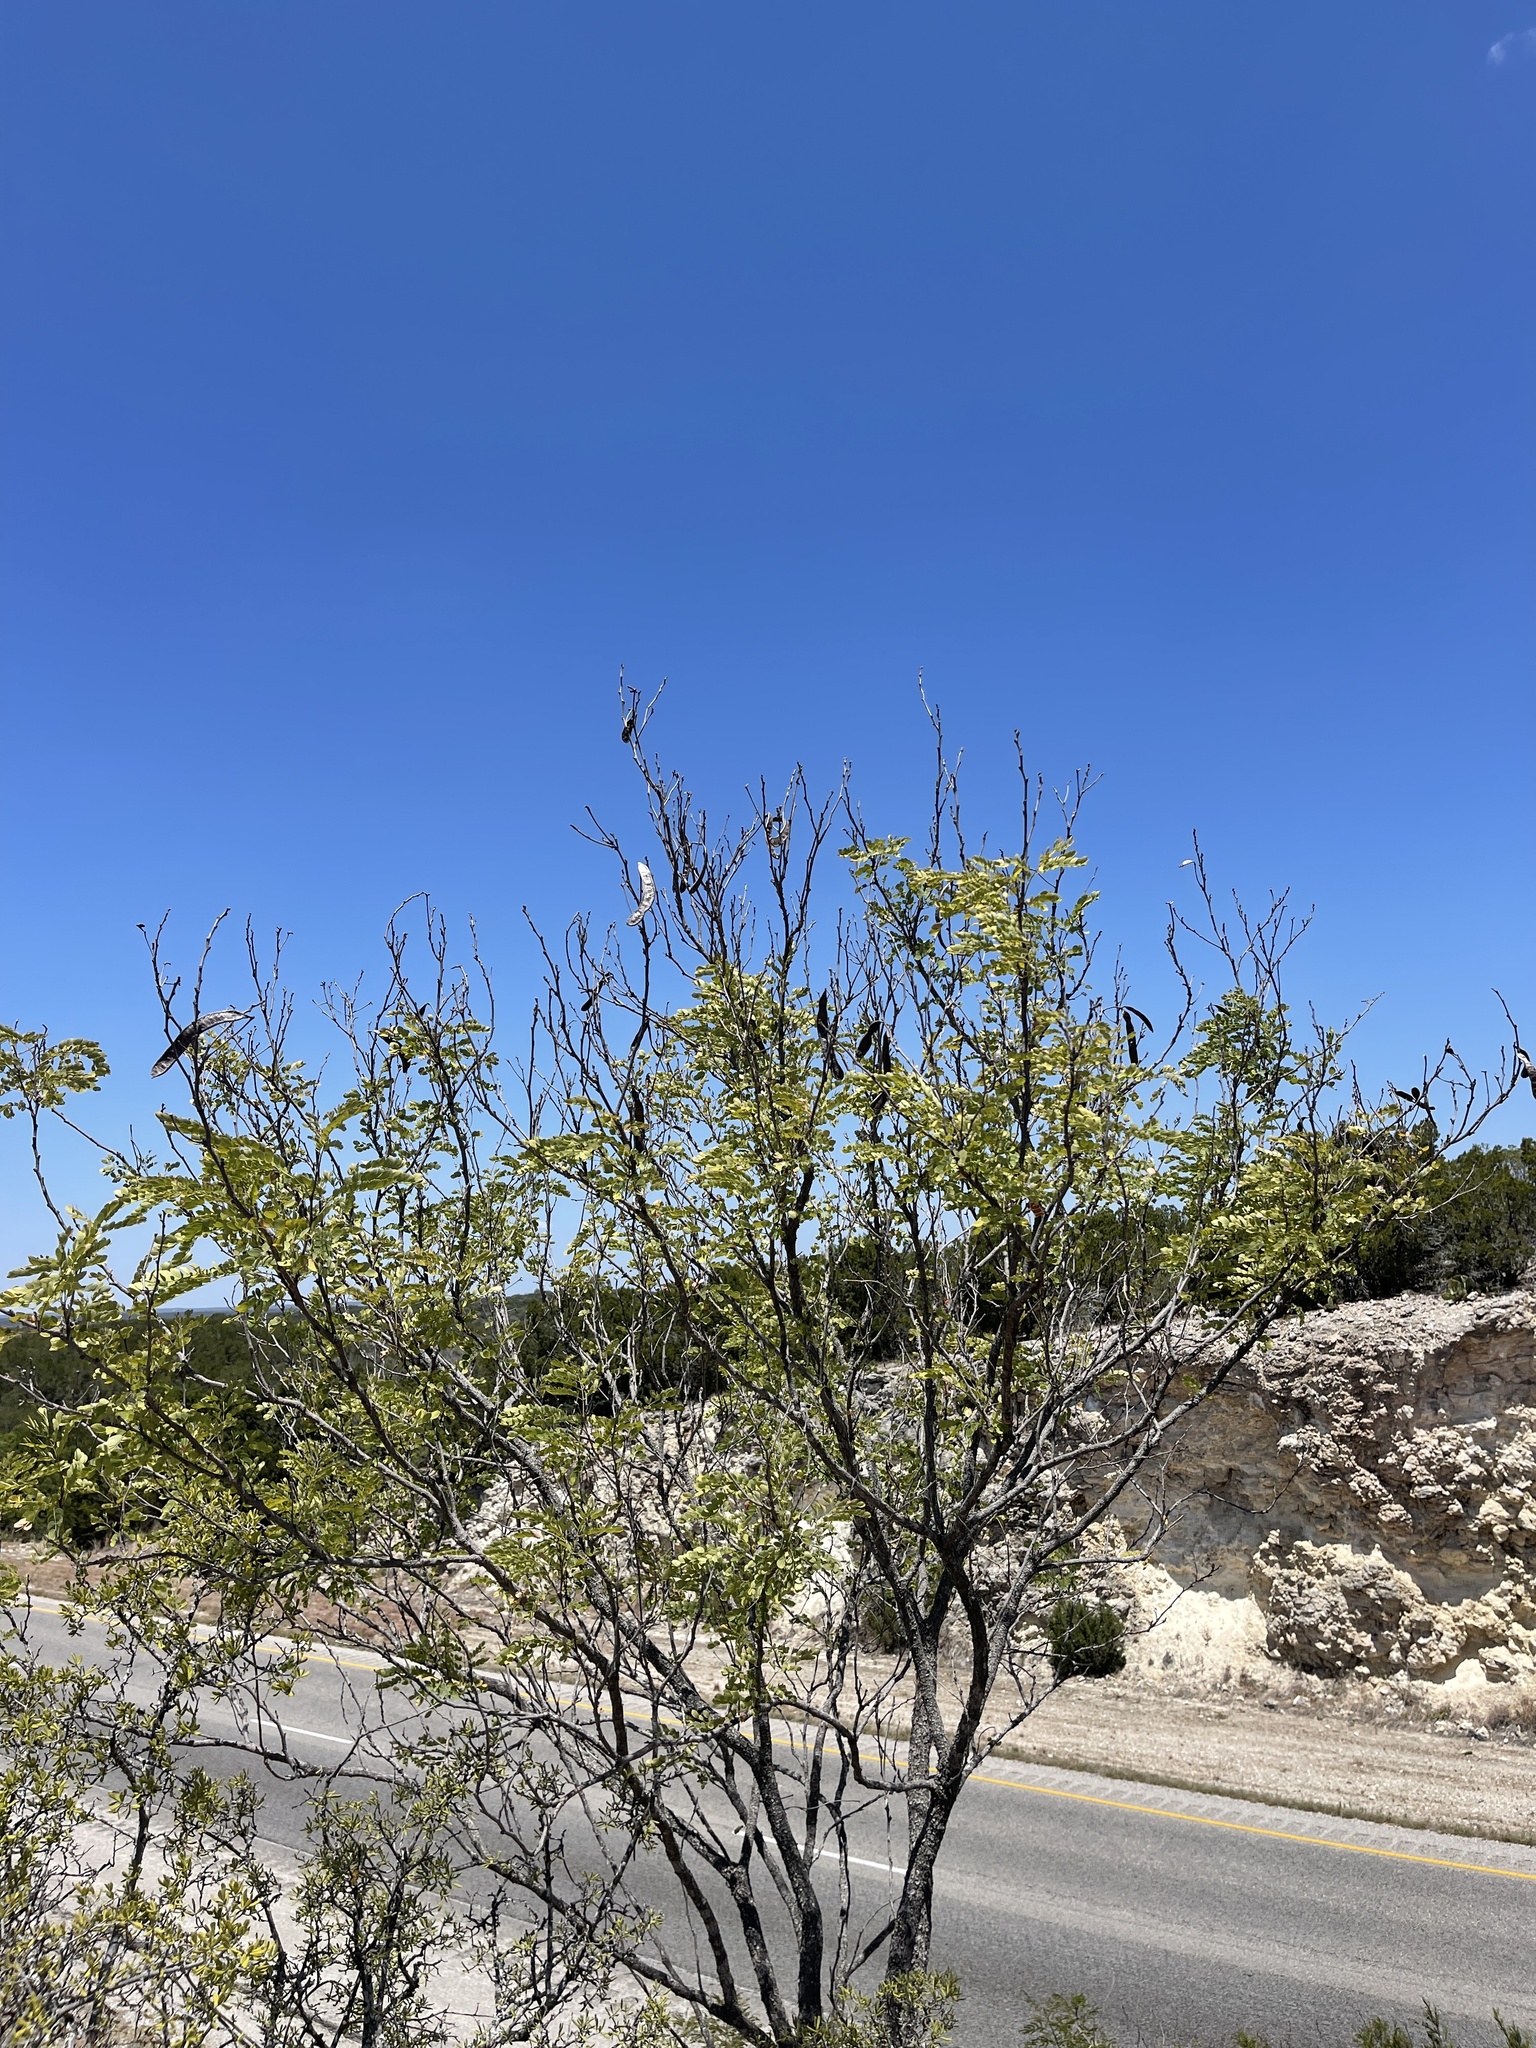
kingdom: Plantae
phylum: Tracheophyta
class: Magnoliopsida
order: Fabales
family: Fabaceae
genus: Leucaena
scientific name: Leucaena retusa
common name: Littleleaf leadtree
